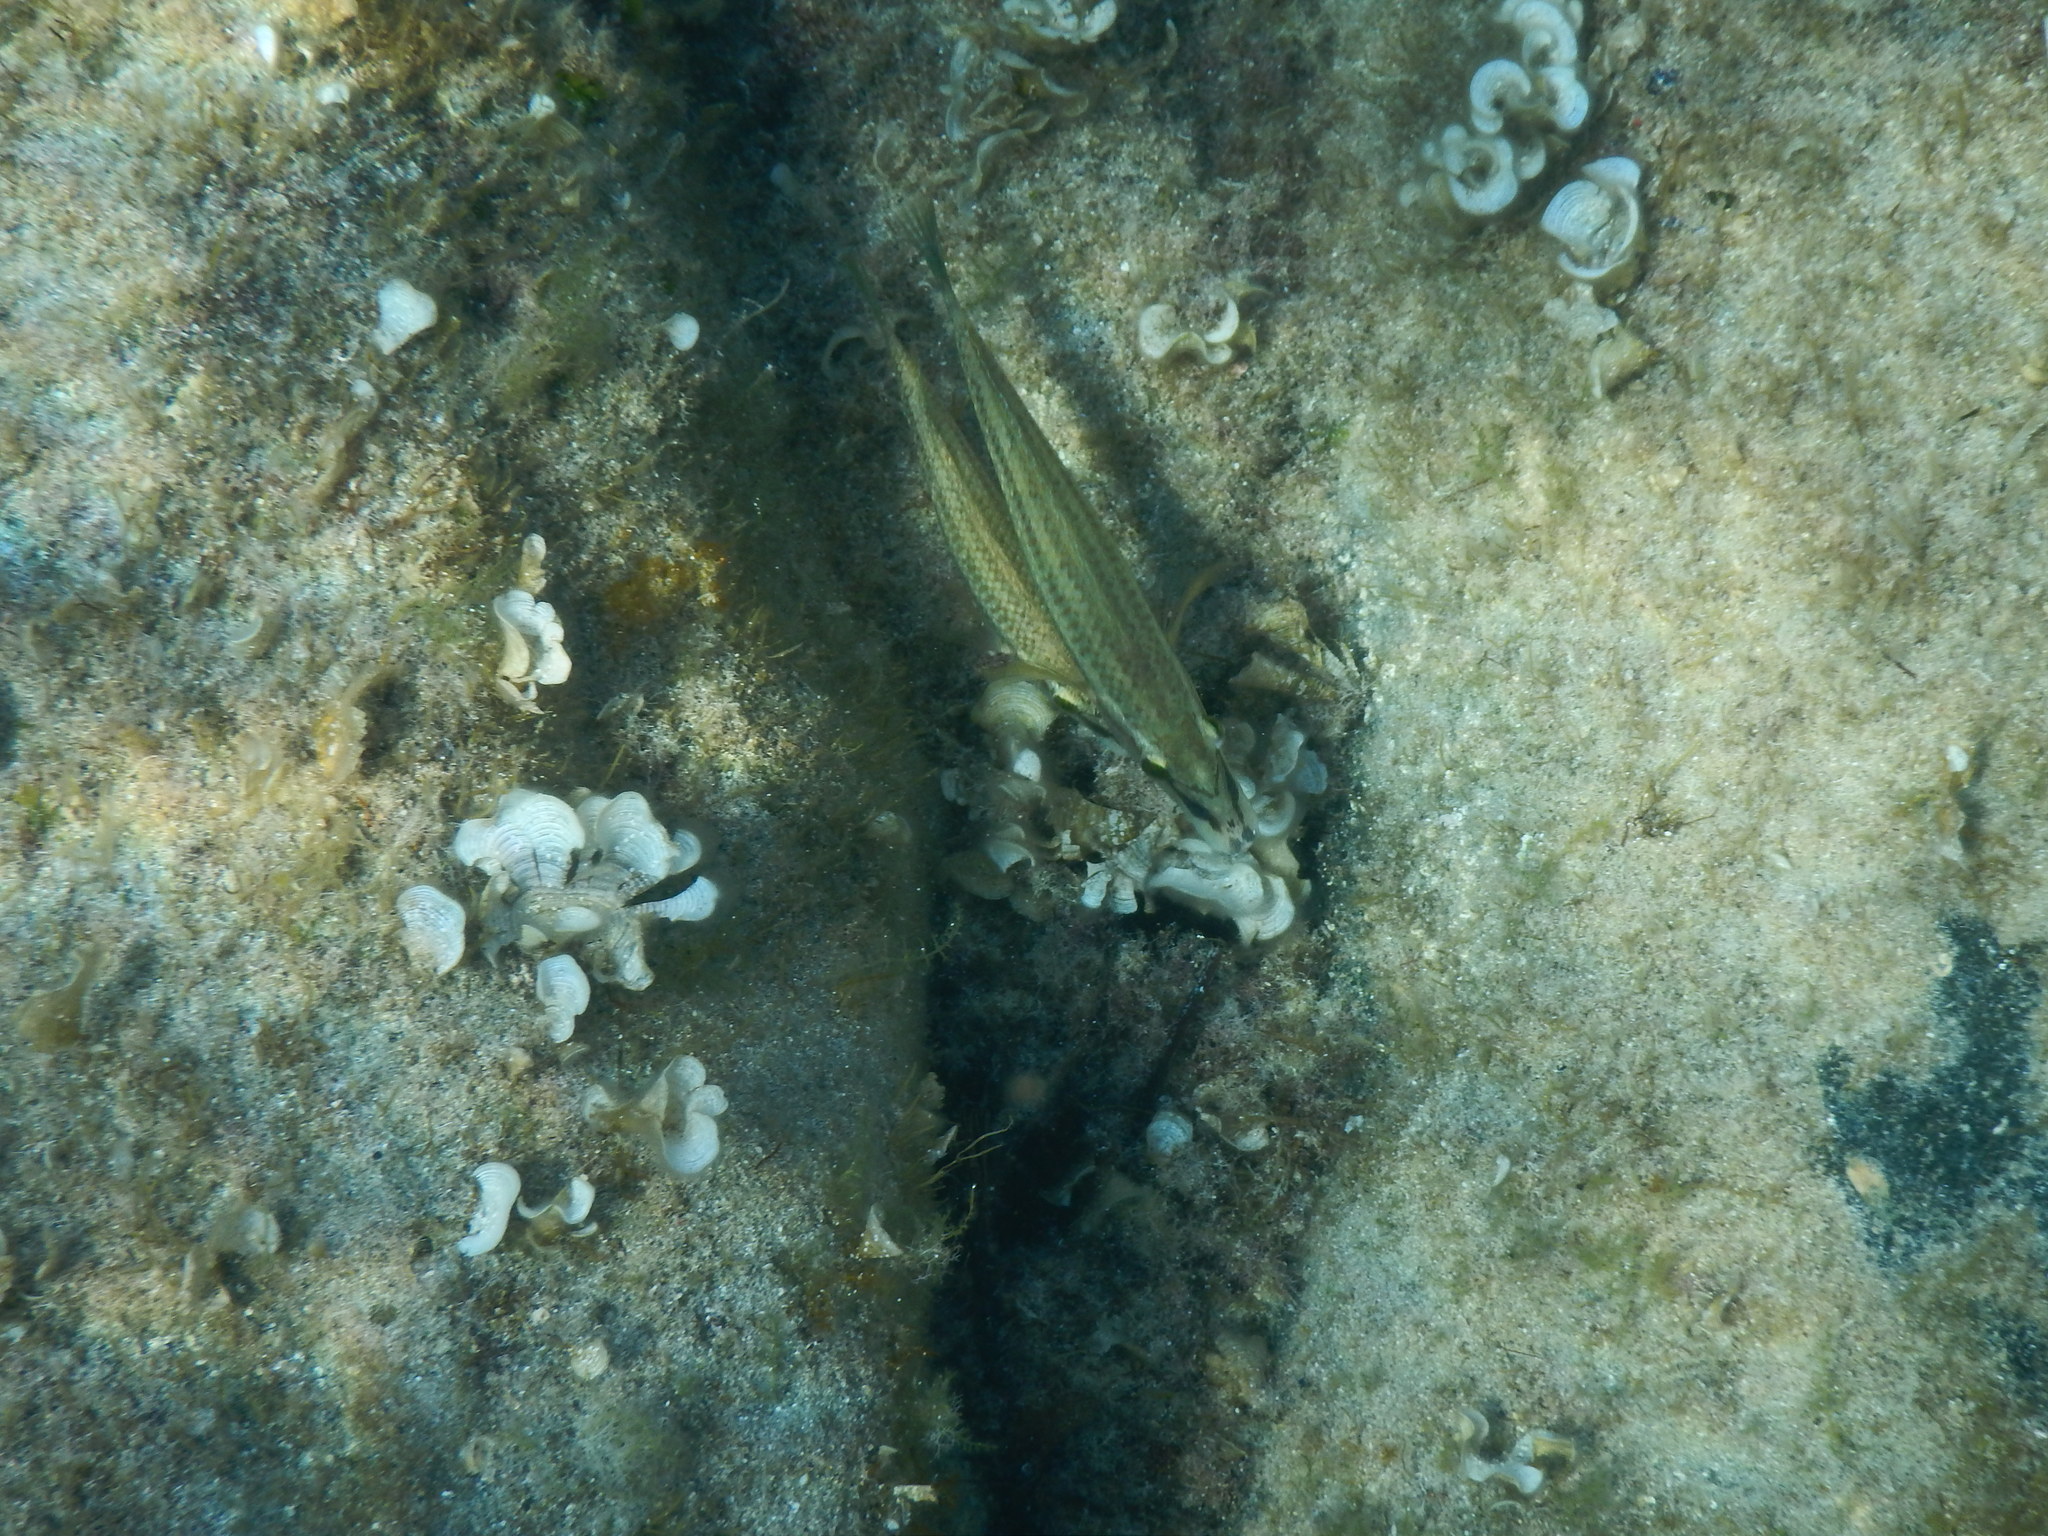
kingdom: Animalia
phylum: Chordata
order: Perciformes
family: Labridae
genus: Symphodus
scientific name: Symphodus tinca
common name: Peacock wrasse
